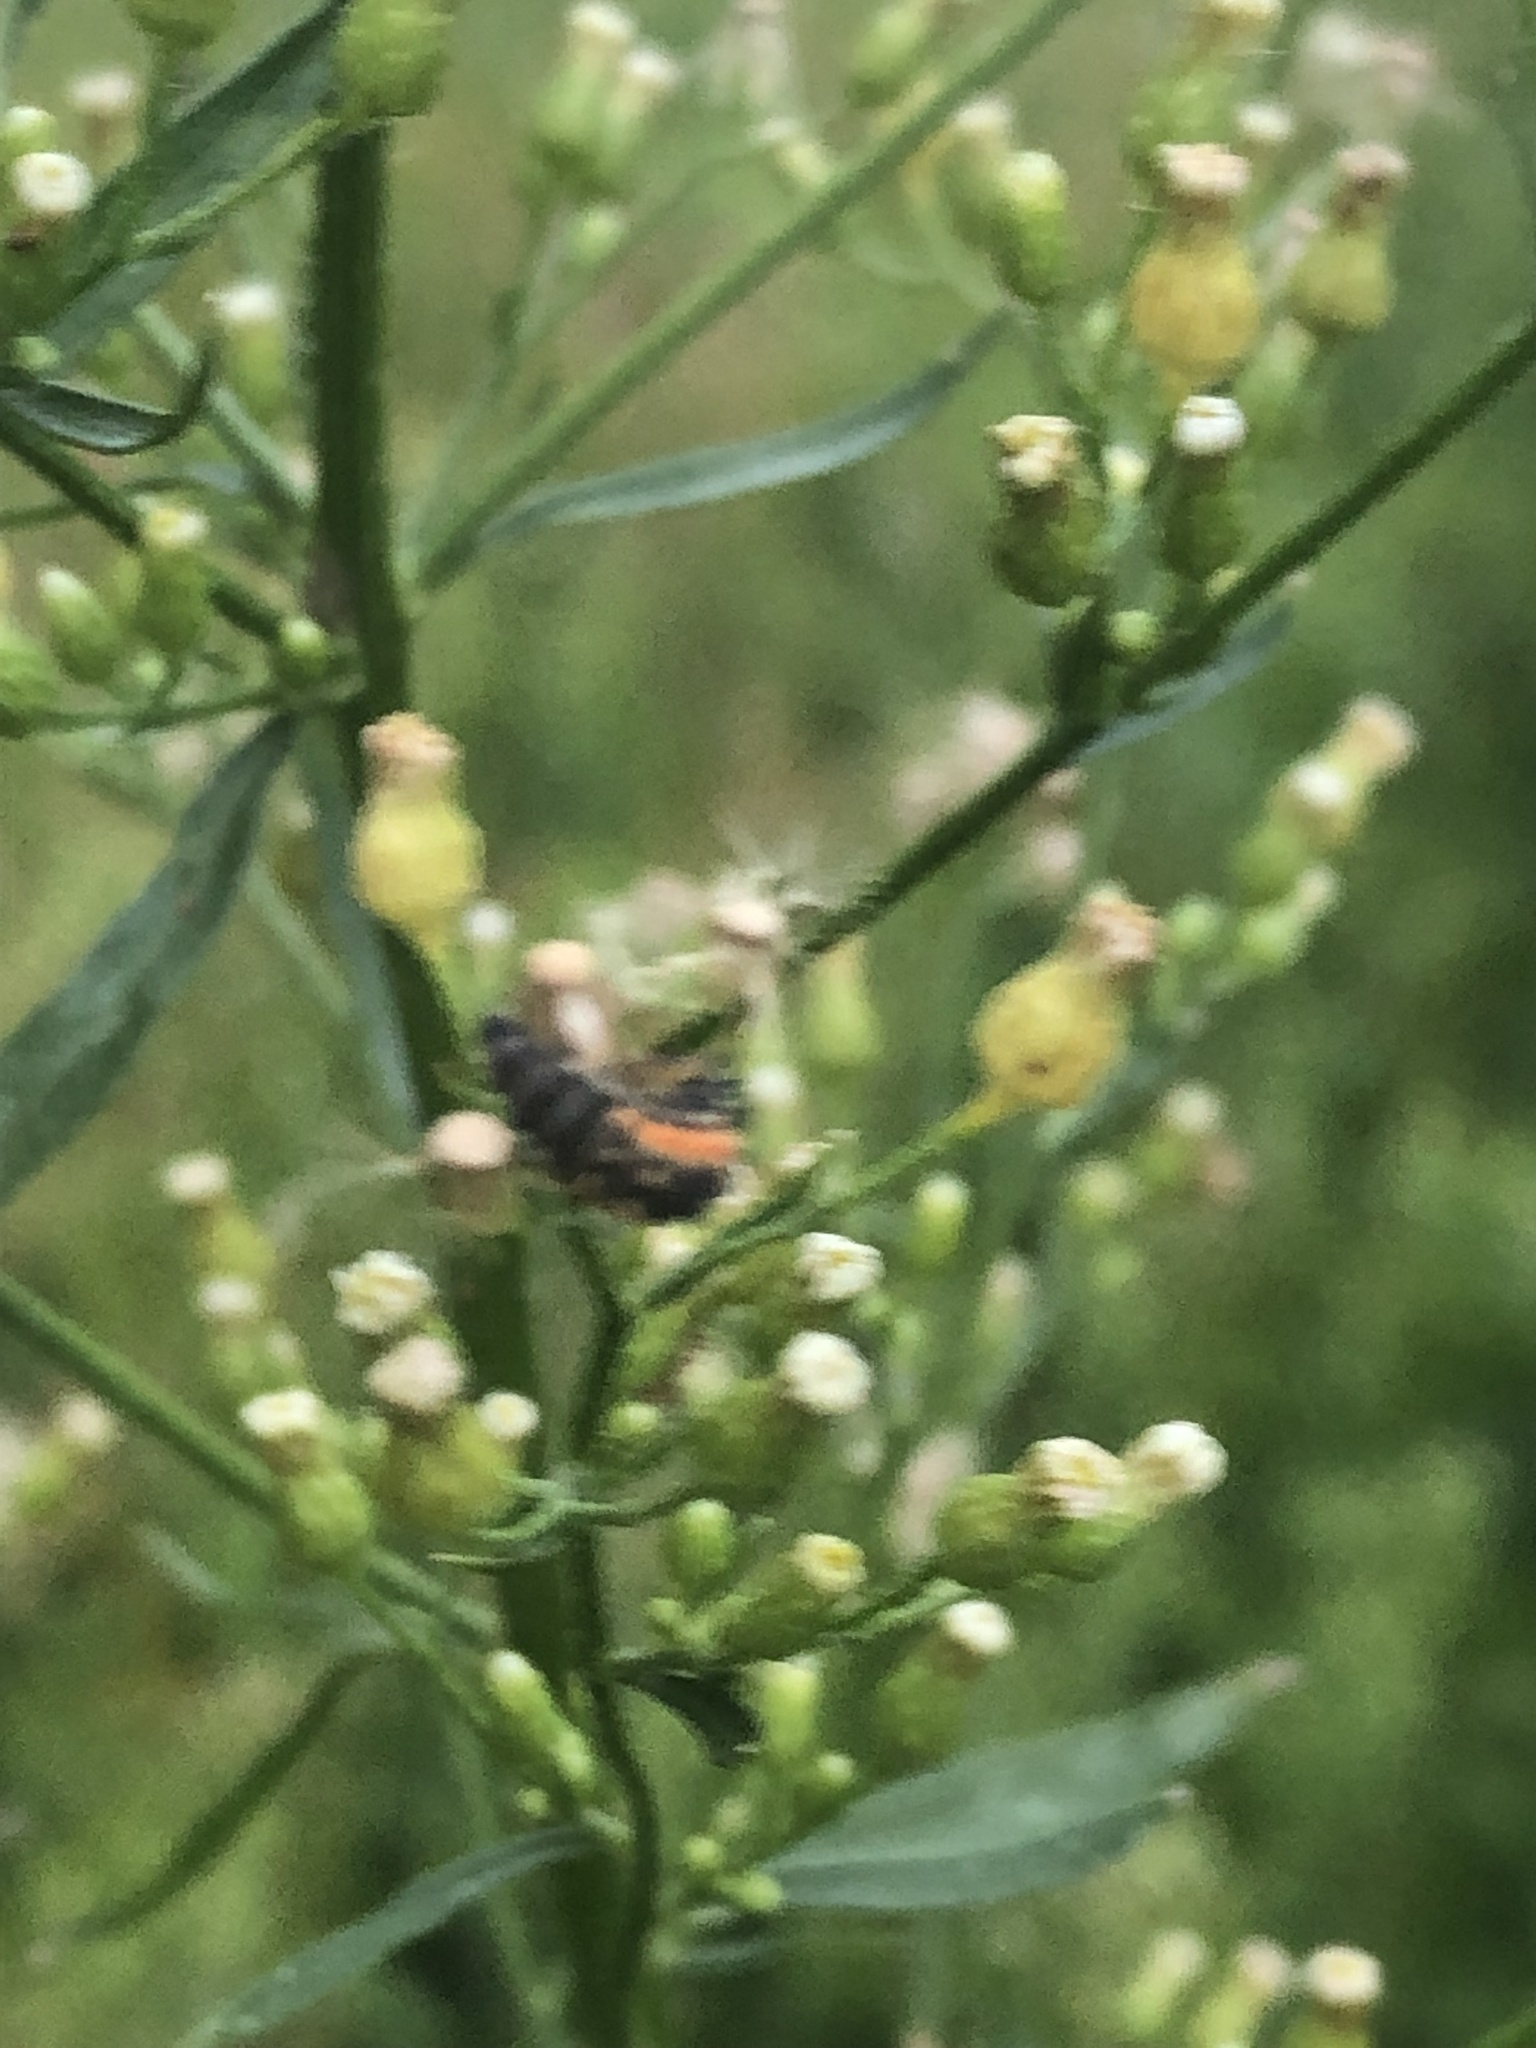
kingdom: Animalia
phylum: Arthropoda
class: Insecta
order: Coleoptera
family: Coccinellidae
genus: Harmonia
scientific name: Harmonia axyridis
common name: Harlequin ladybird
